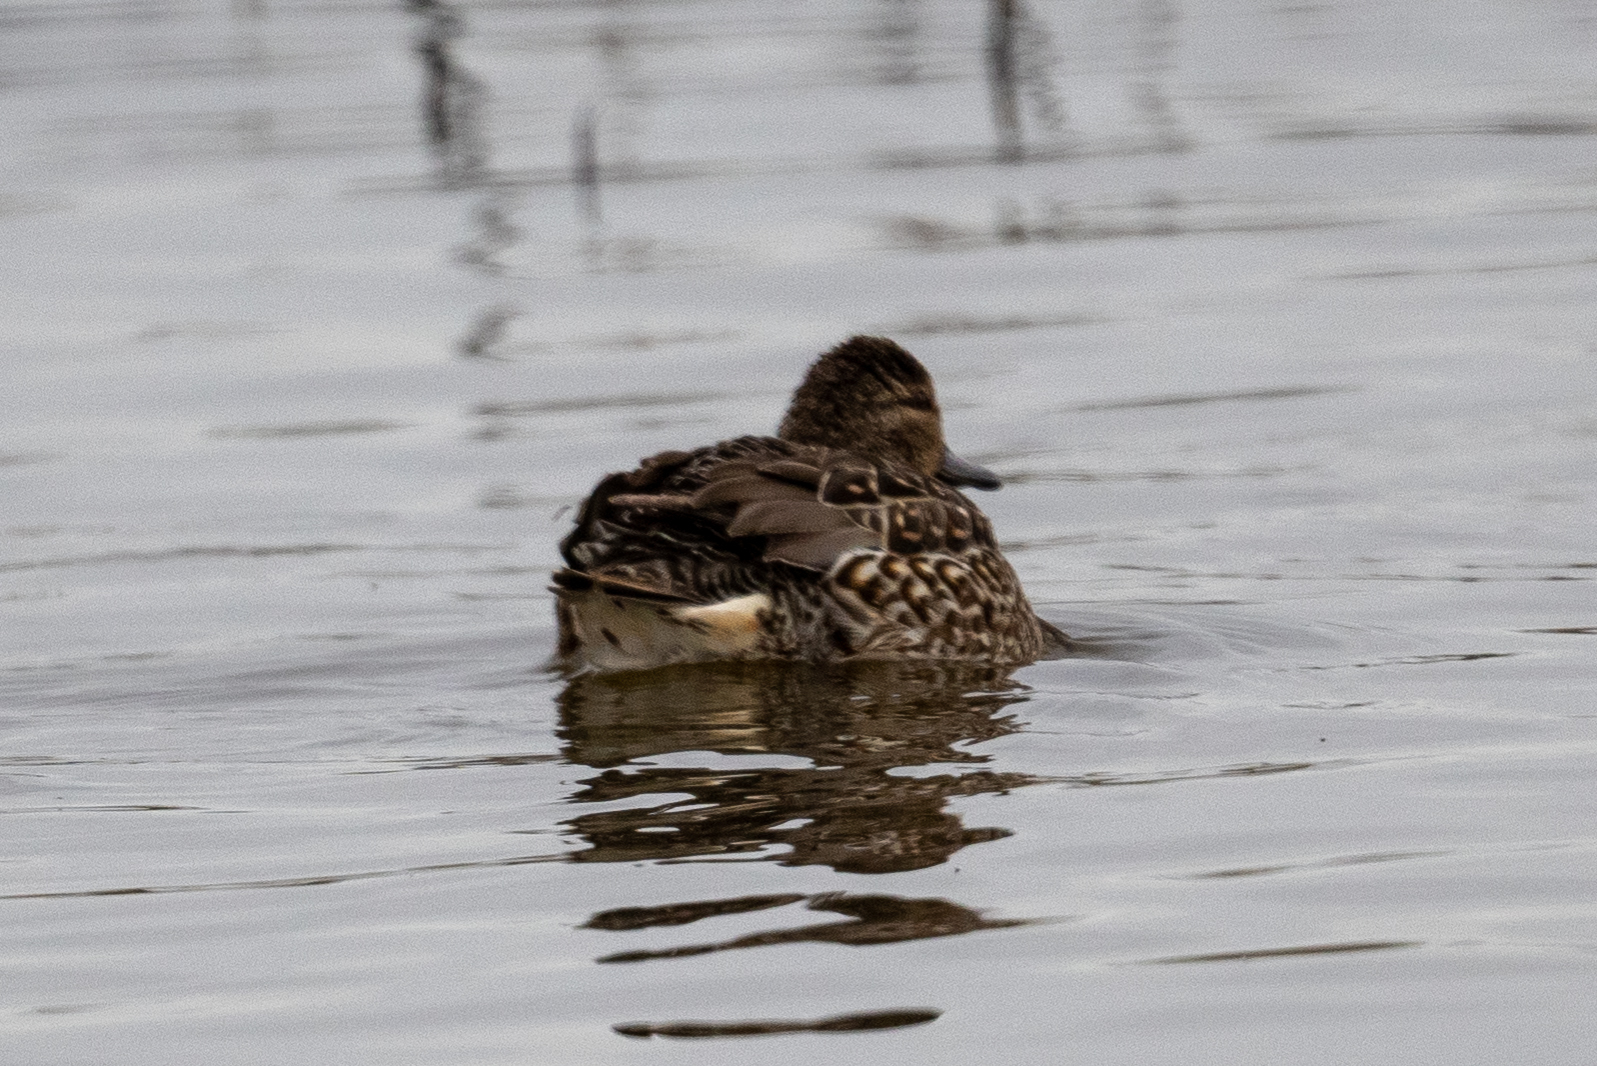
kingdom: Animalia
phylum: Chordata
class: Aves
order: Anseriformes
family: Anatidae
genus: Anas
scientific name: Anas crecca
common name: Eurasian teal
